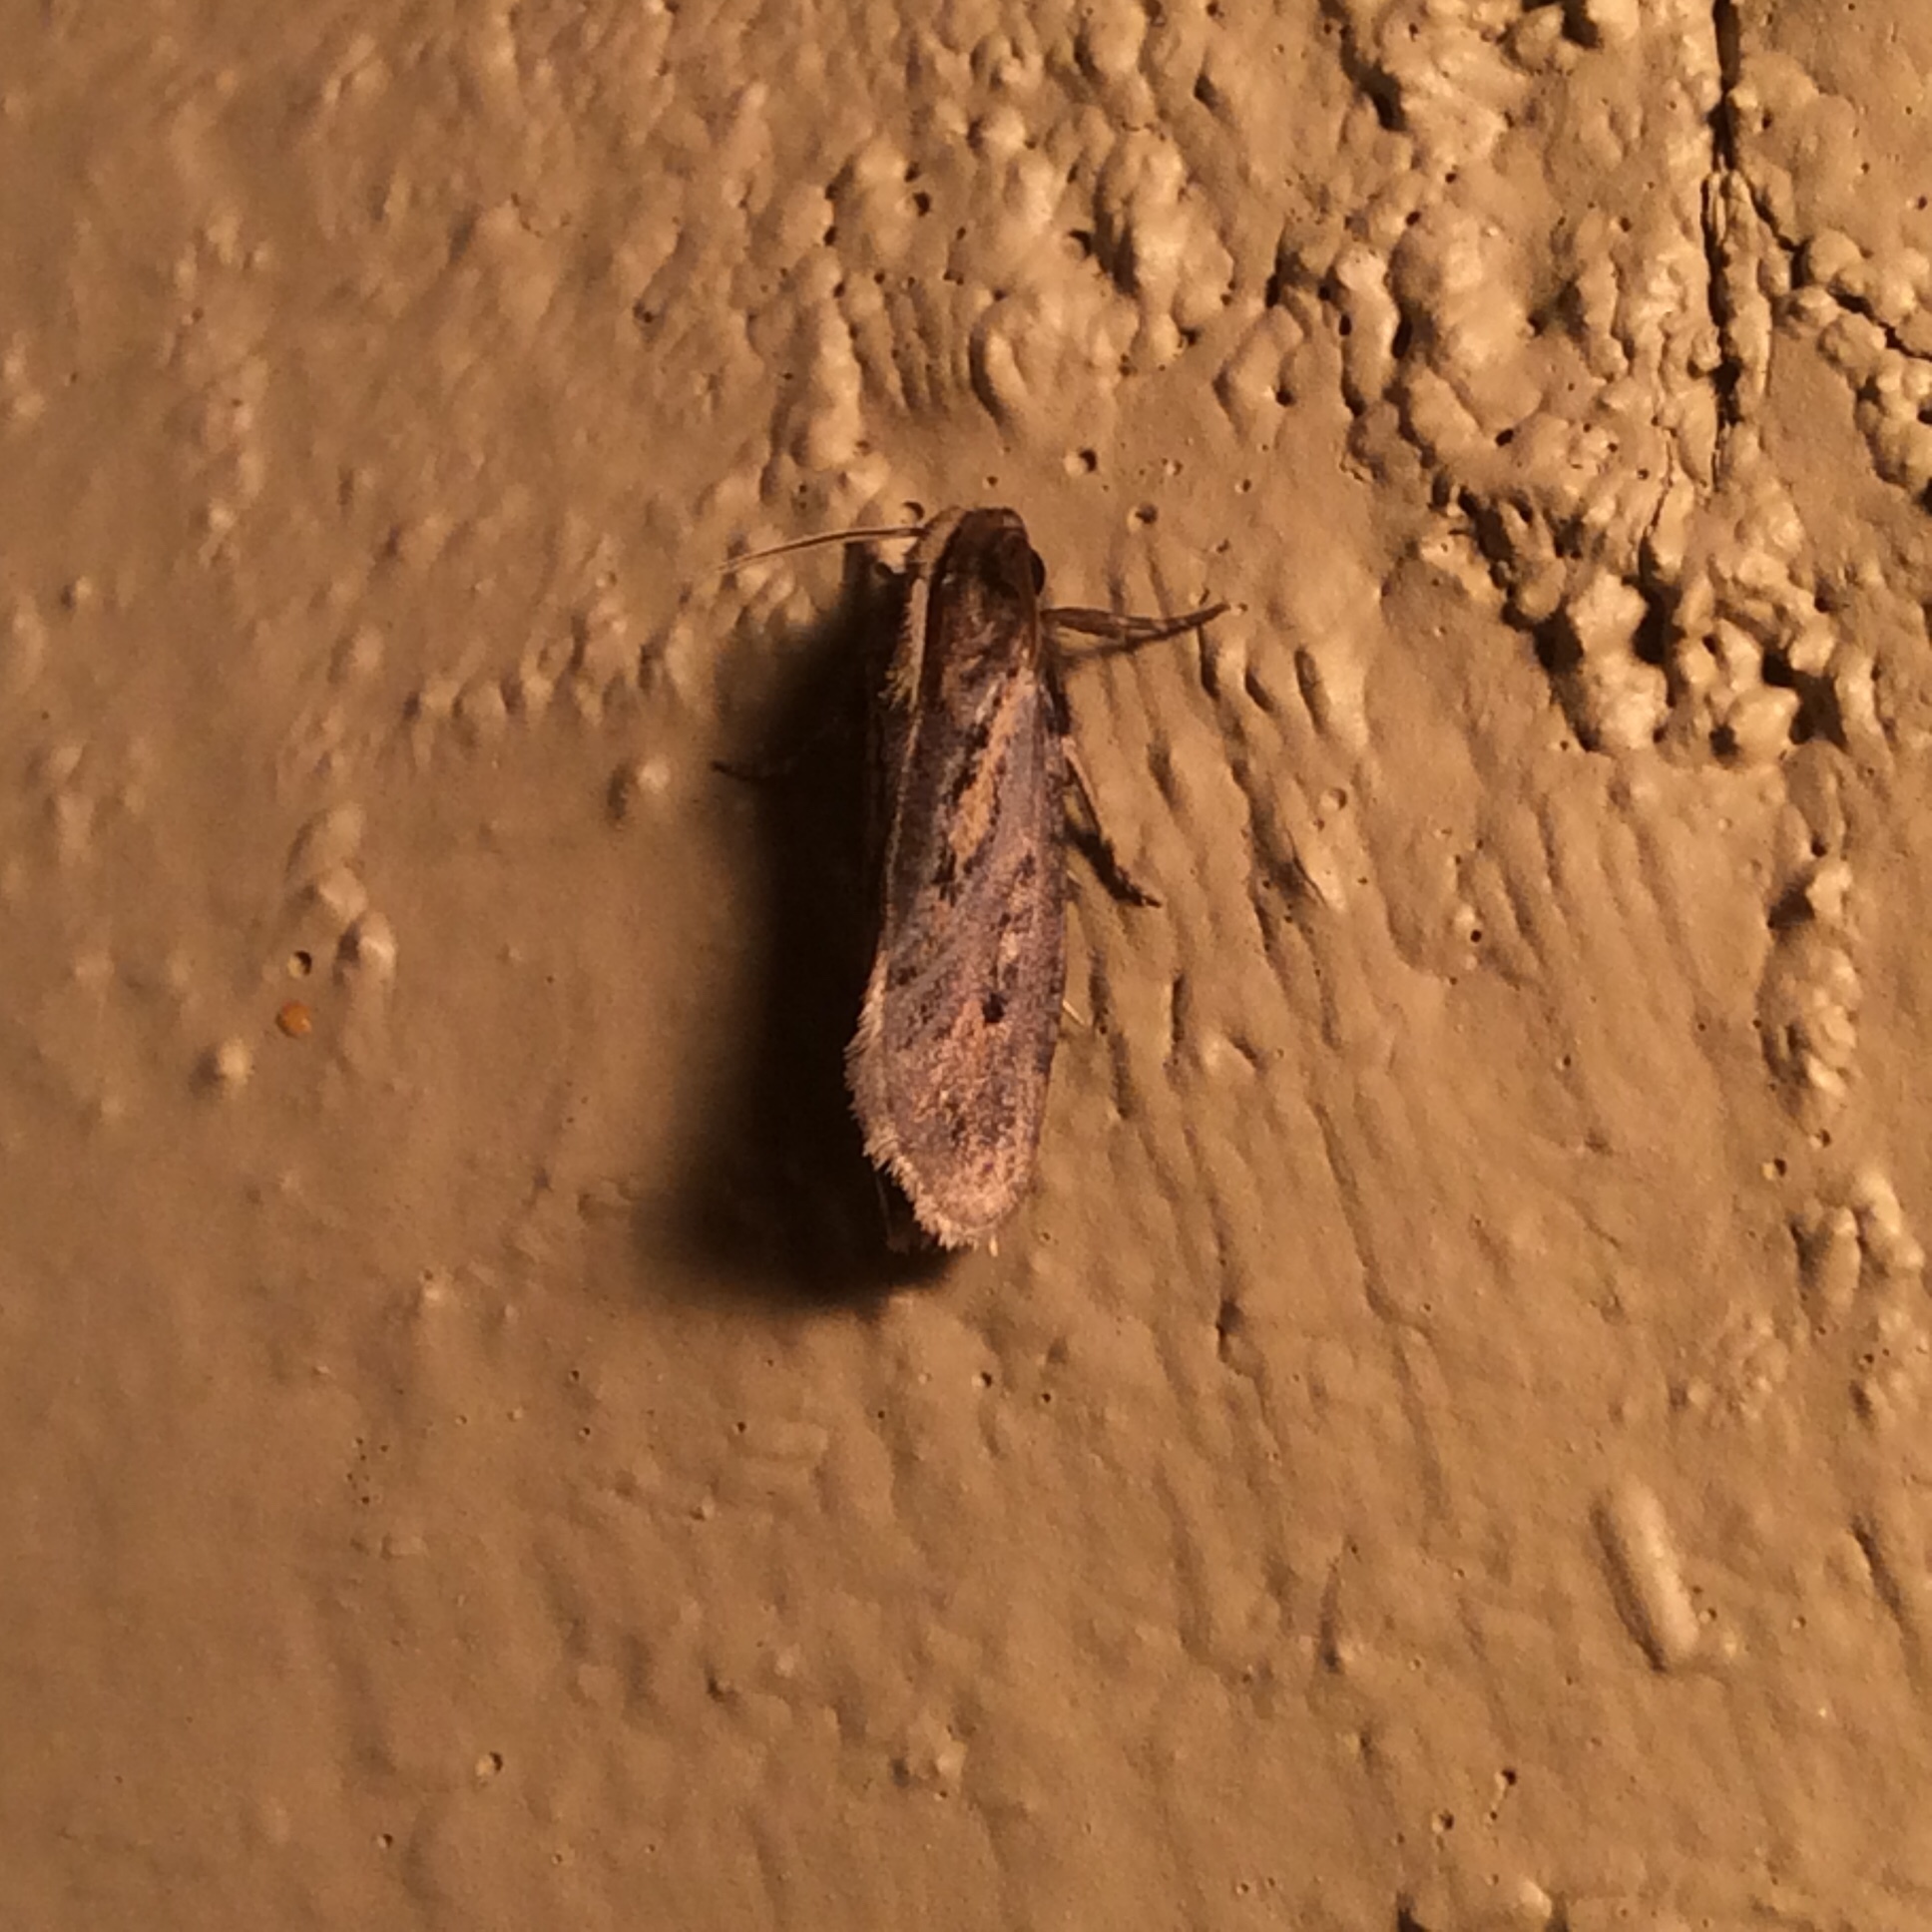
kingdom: Animalia
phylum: Arthropoda
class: Insecta
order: Lepidoptera
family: Tineidae
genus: Acrolophus
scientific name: Acrolophus popeanella
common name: Clemens' grass tubeworm moth
